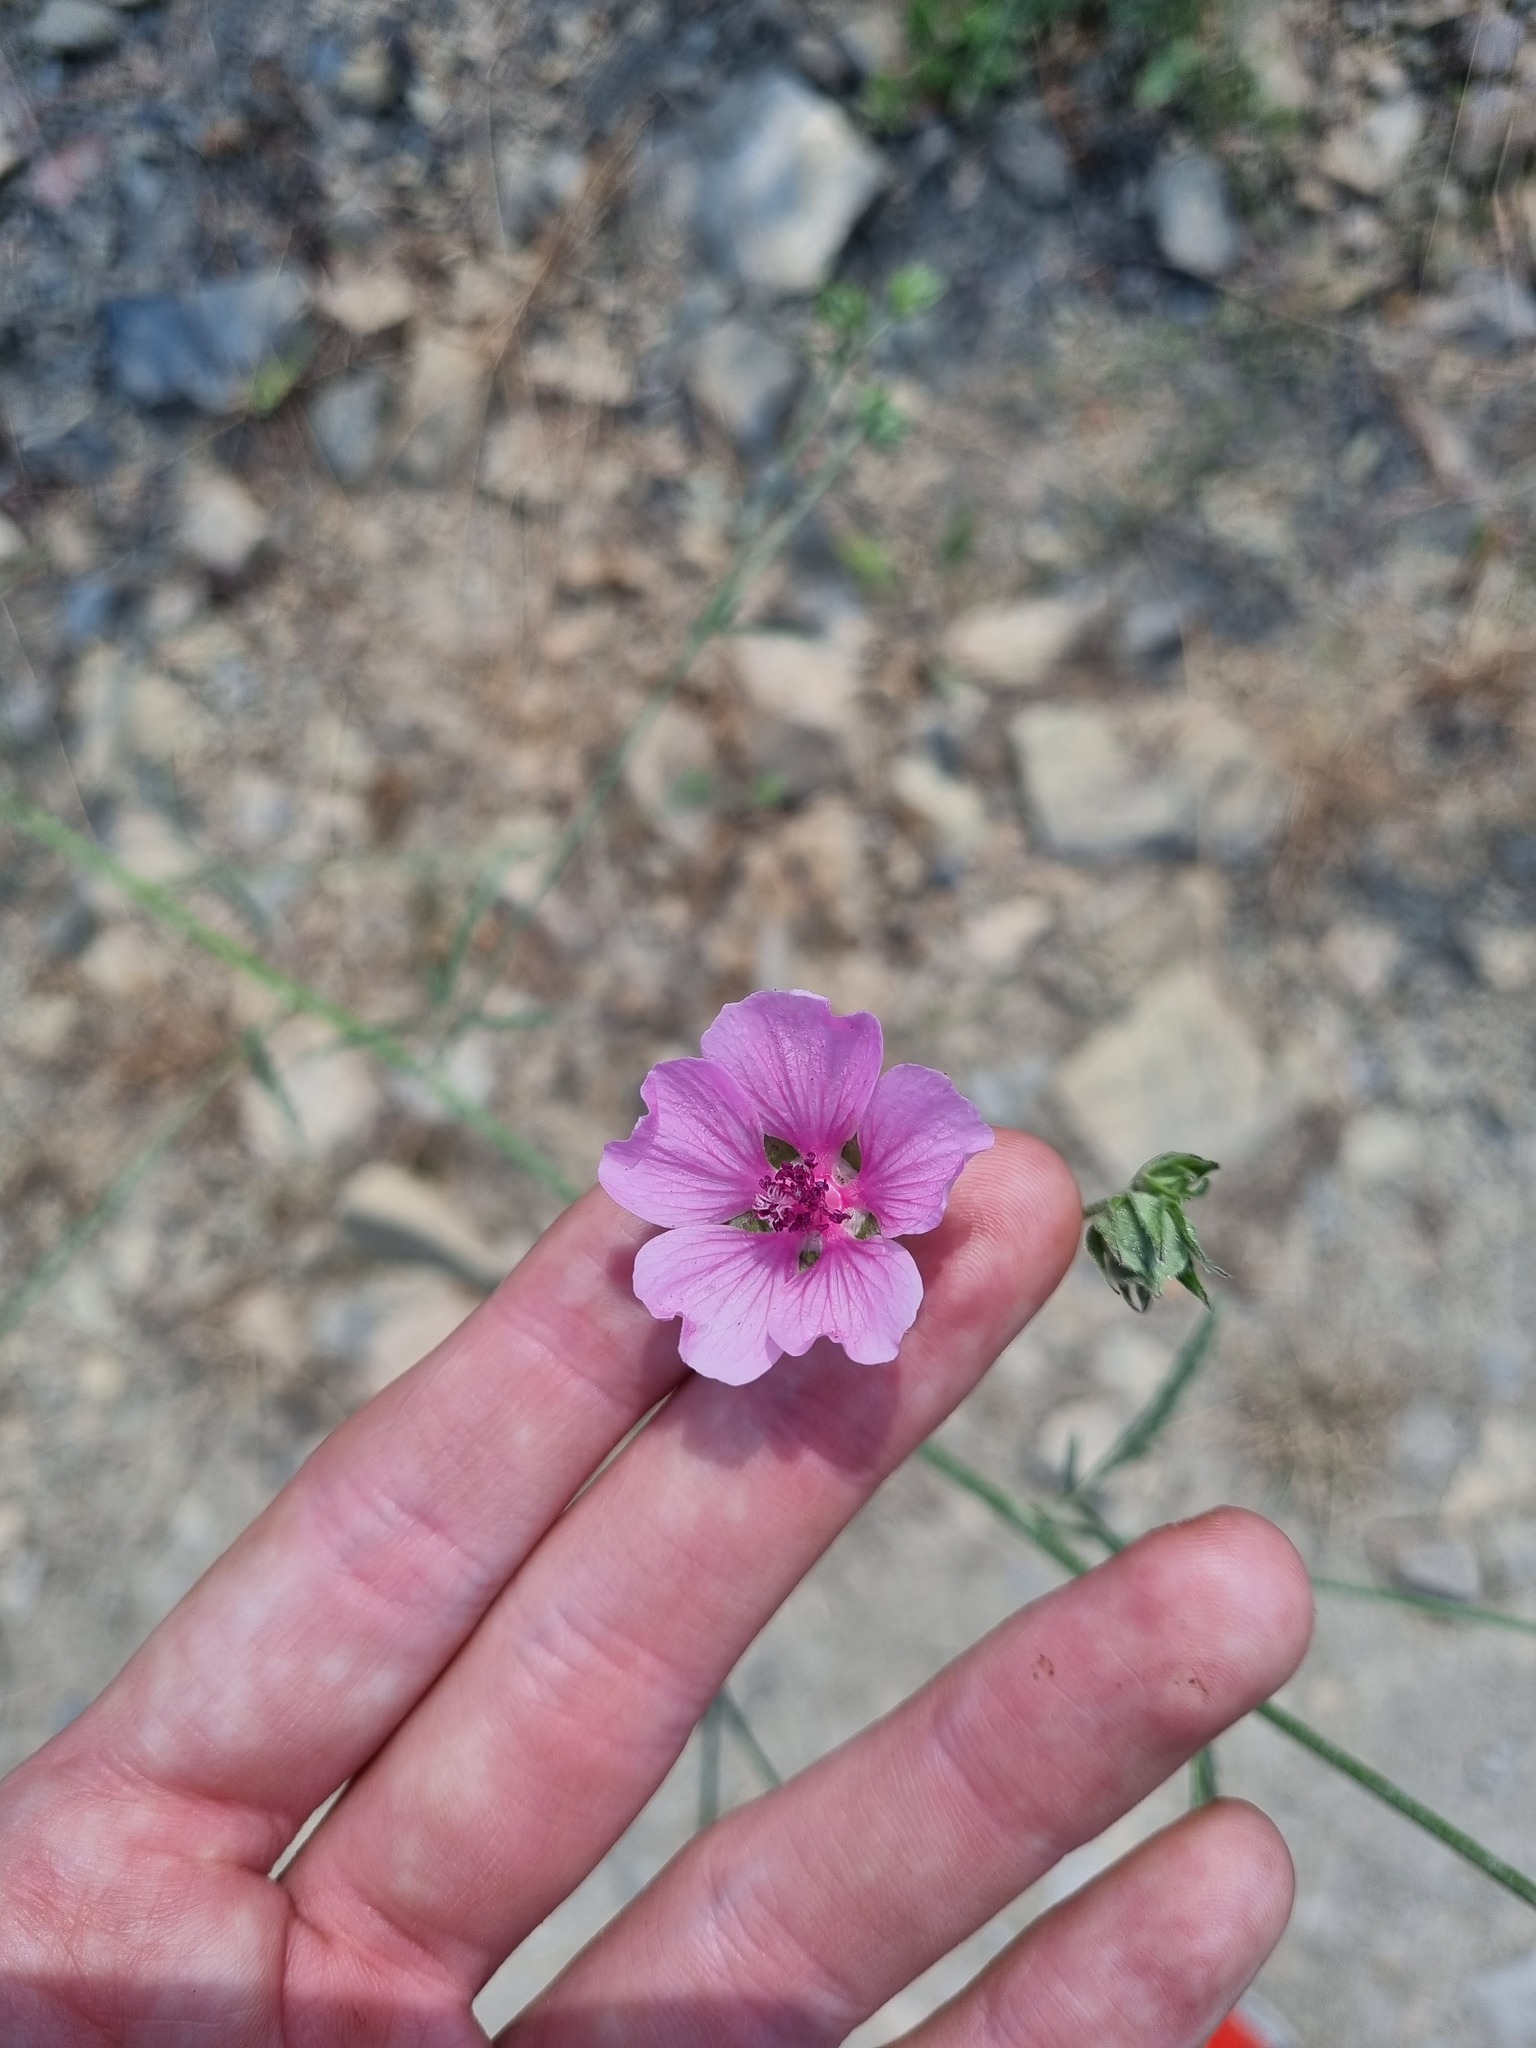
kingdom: Plantae
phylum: Tracheophyta
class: Magnoliopsida
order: Malvales
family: Malvaceae
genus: Althaea
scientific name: Althaea cannabina
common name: Palm-leaf marshmallow
